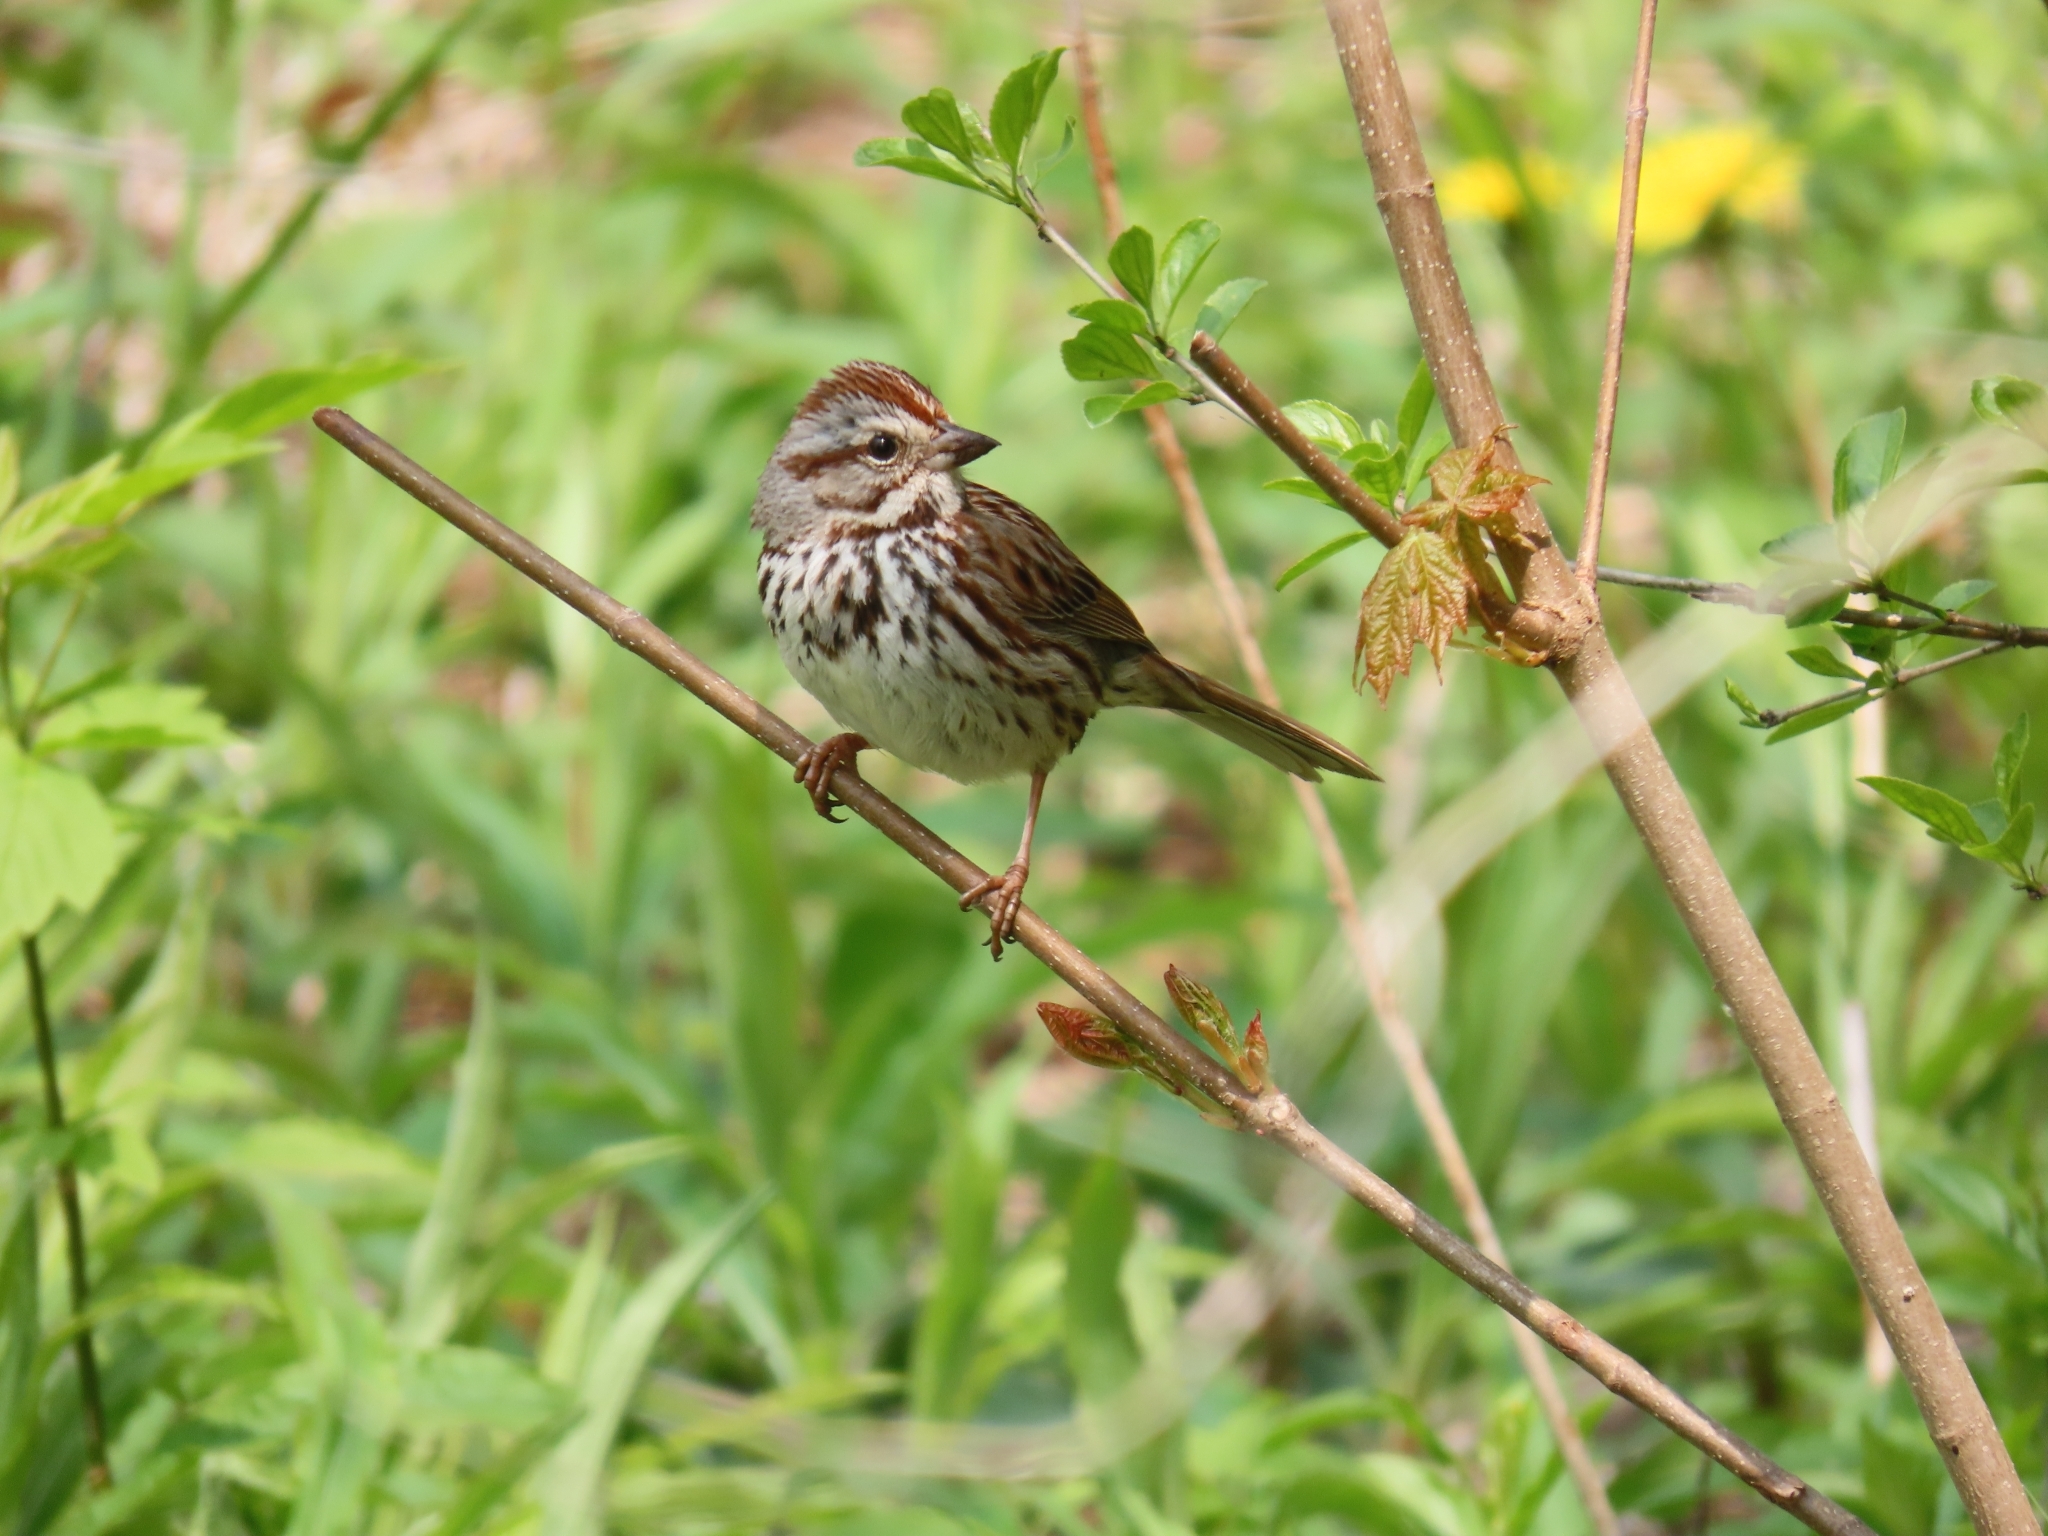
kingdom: Animalia
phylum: Chordata
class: Aves
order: Passeriformes
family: Passerellidae
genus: Melospiza
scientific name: Melospiza melodia
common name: Song sparrow
